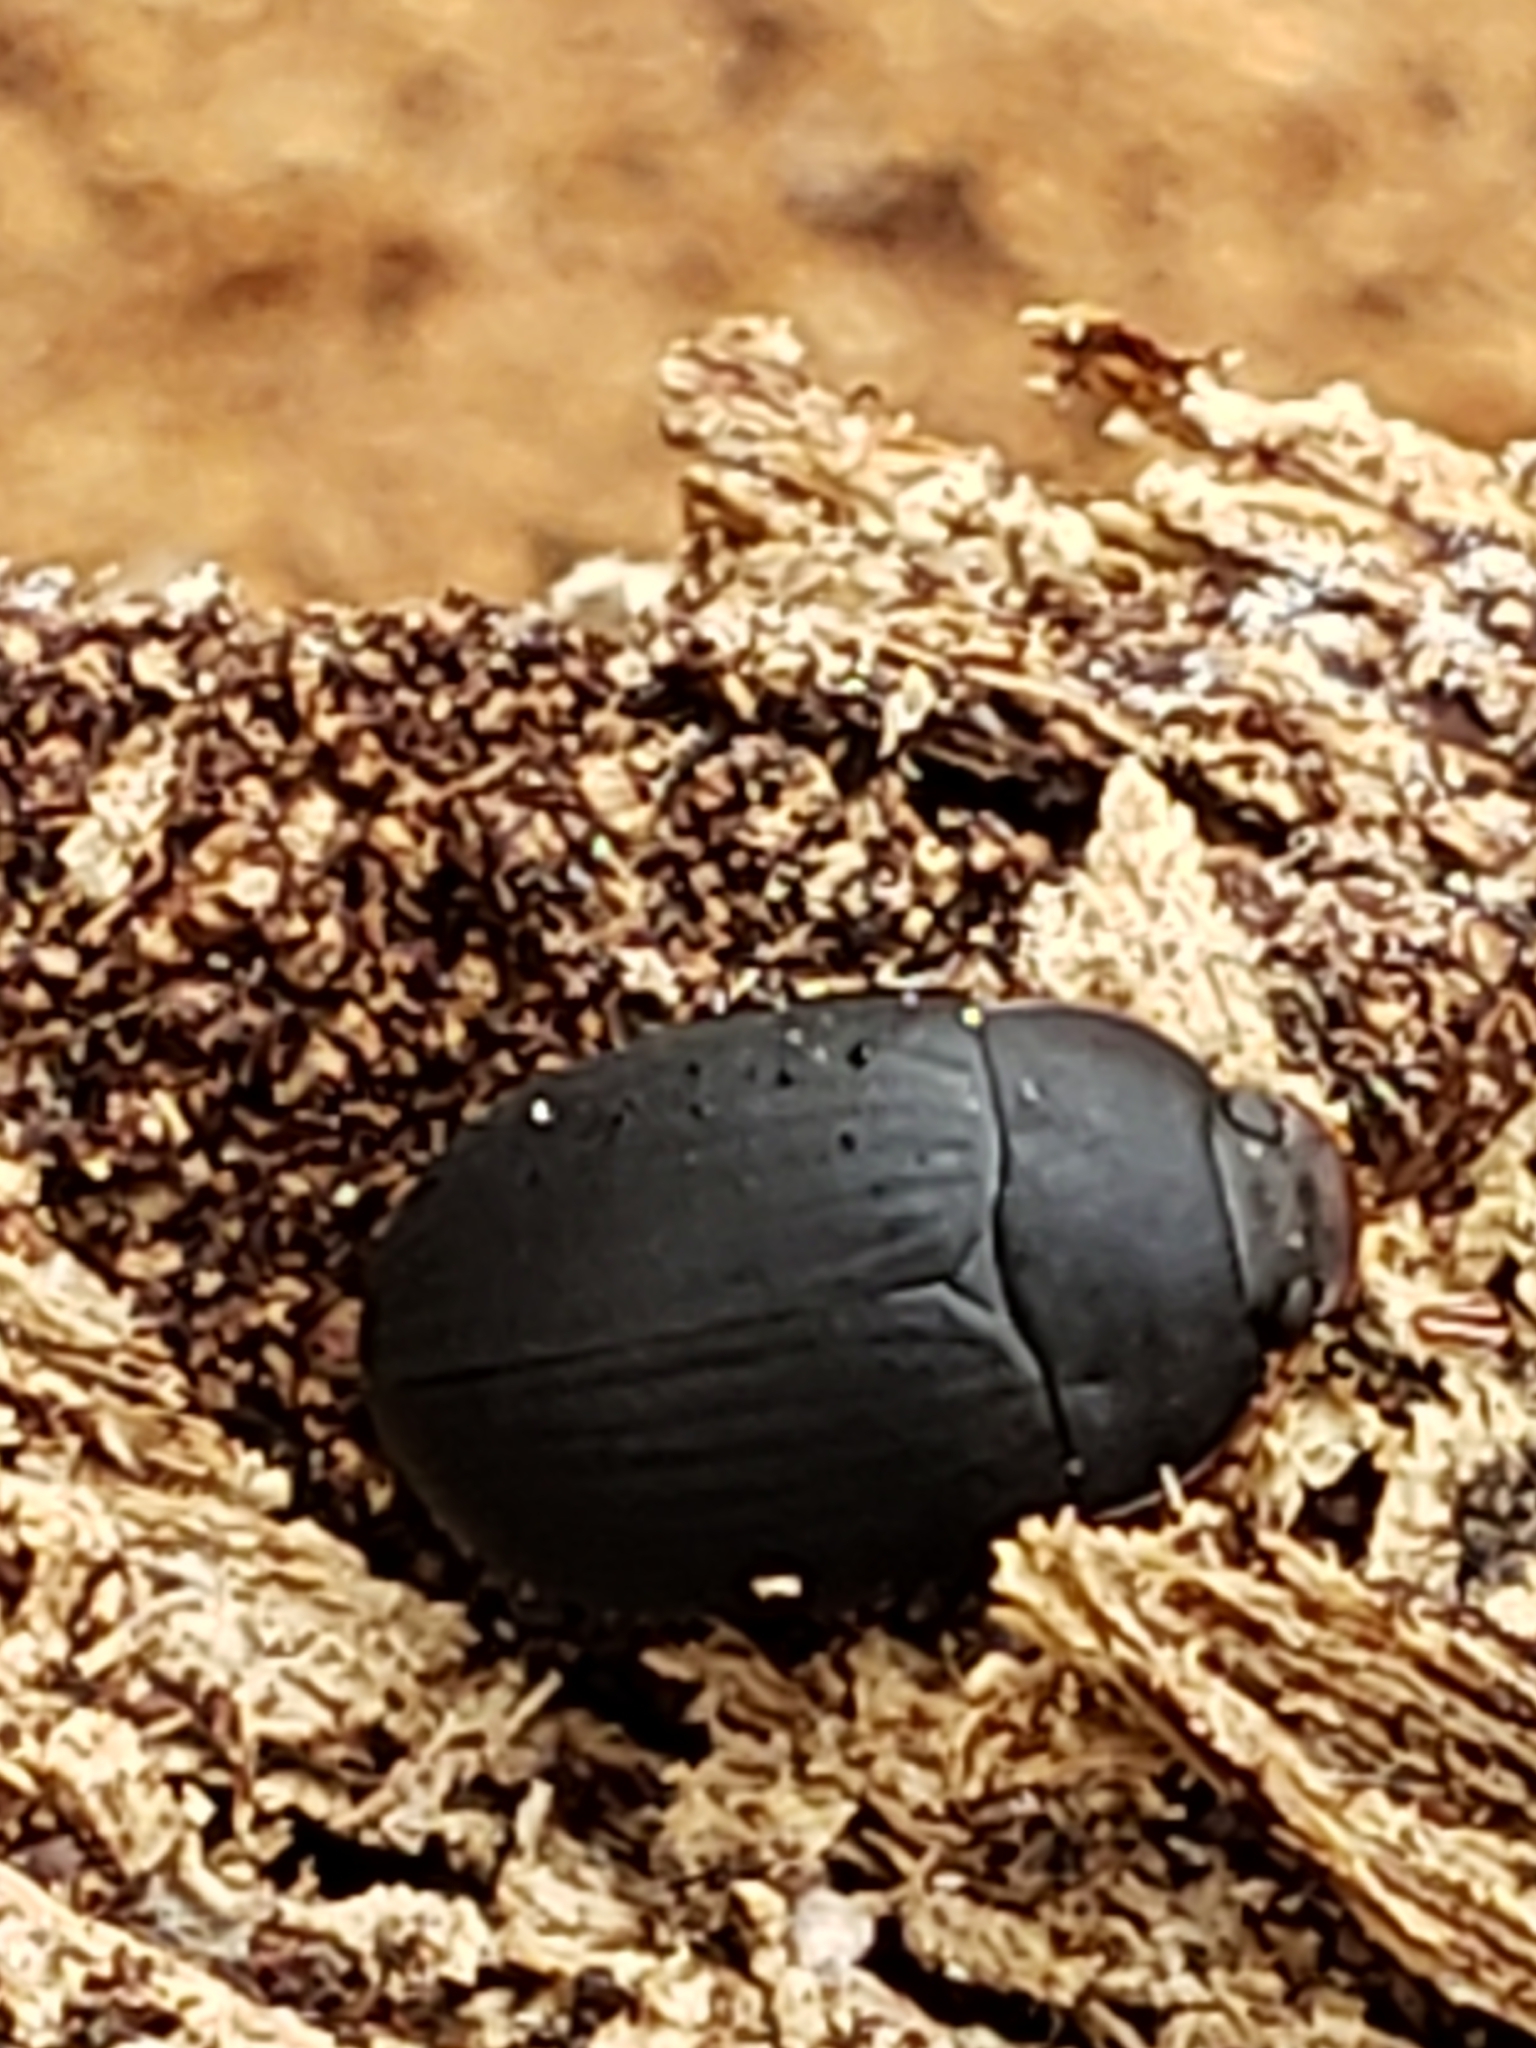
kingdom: Animalia
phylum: Arthropoda
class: Insecta
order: Coleoptera
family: Tenebrionidae
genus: Platydema
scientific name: Platydema ruficornis
